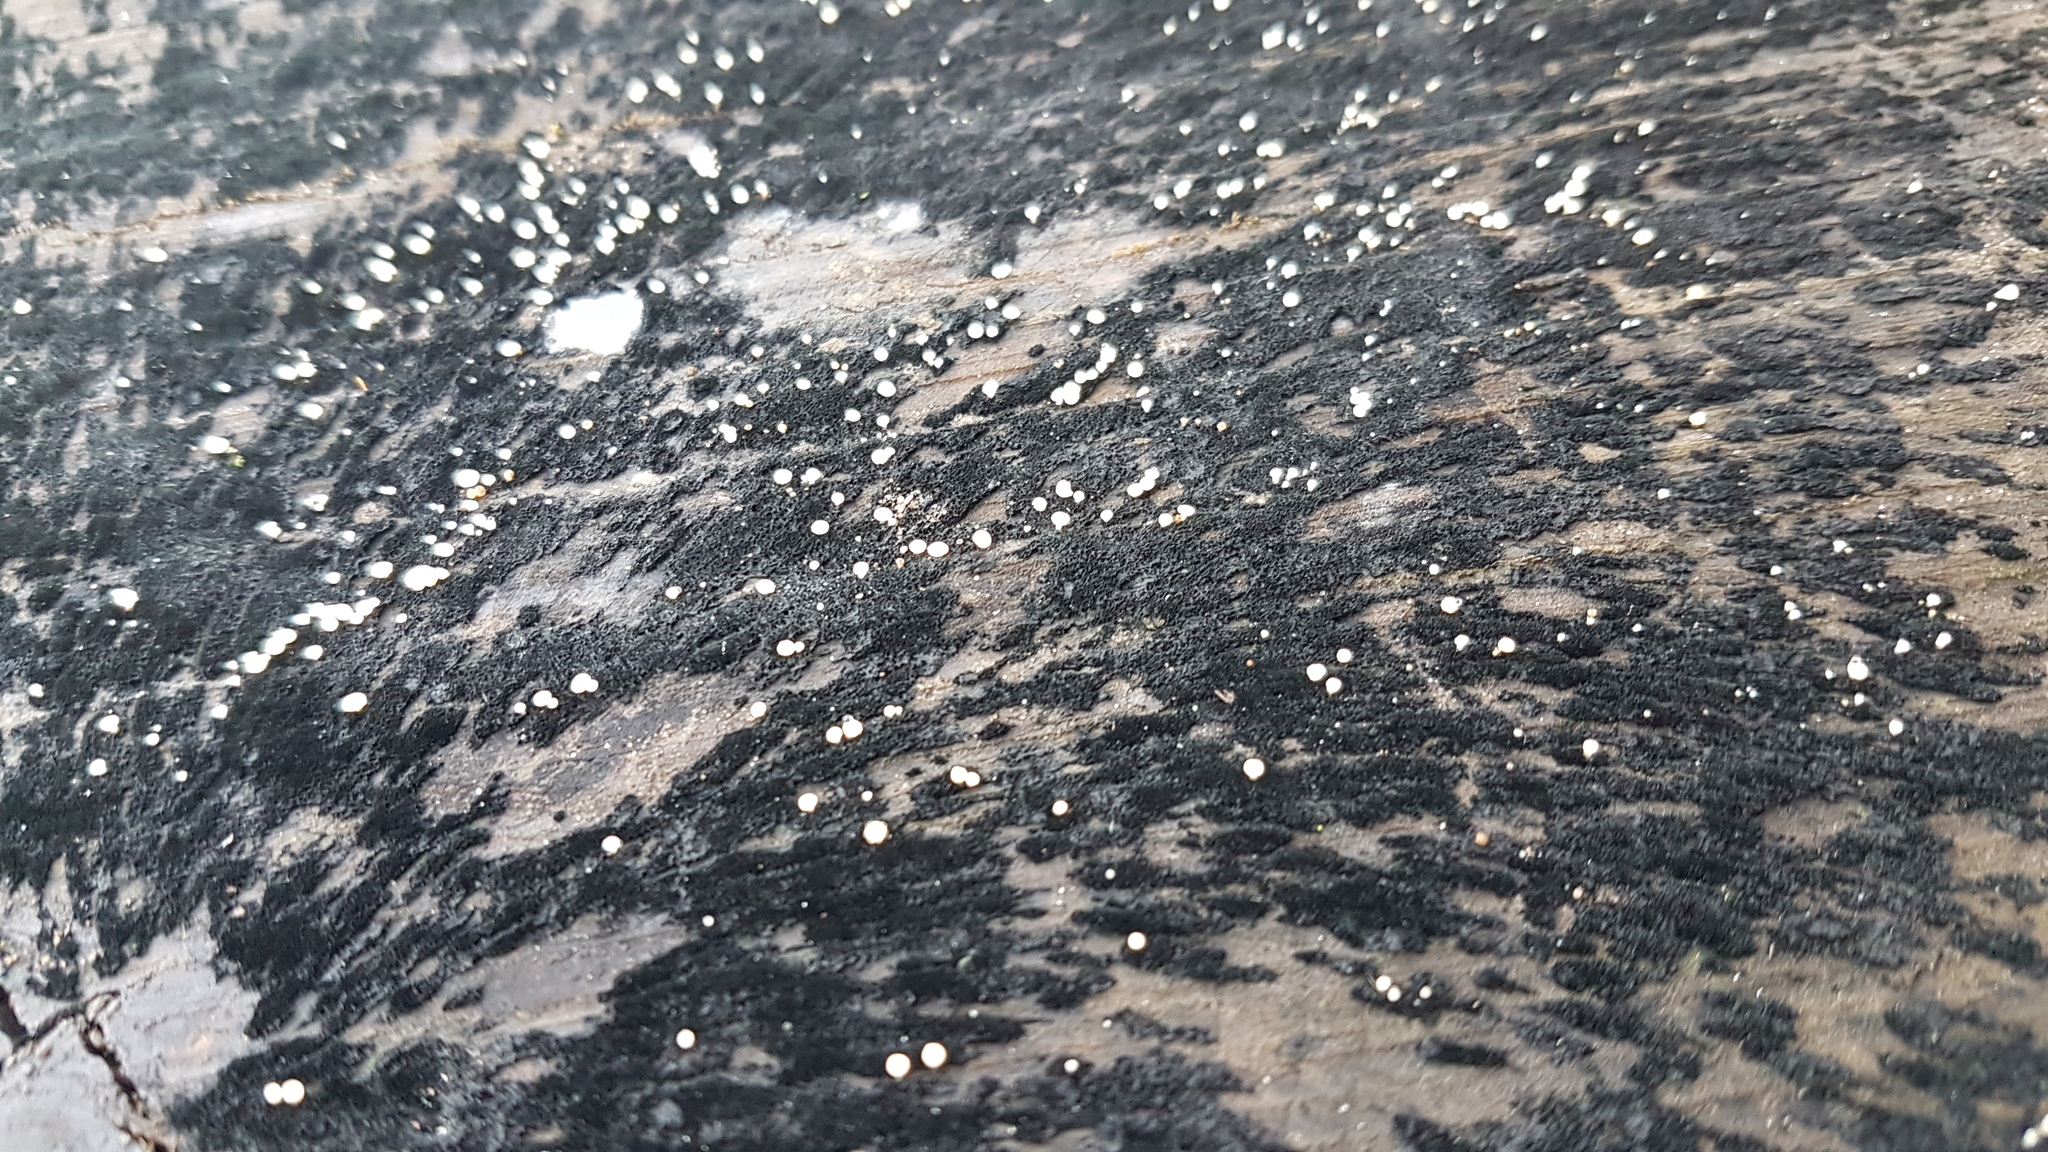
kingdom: Fungi
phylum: Ascomycota
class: Leotiomycetes
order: Helotiales
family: Helotiaceae
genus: Bispora
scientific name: Bispora pallescens
